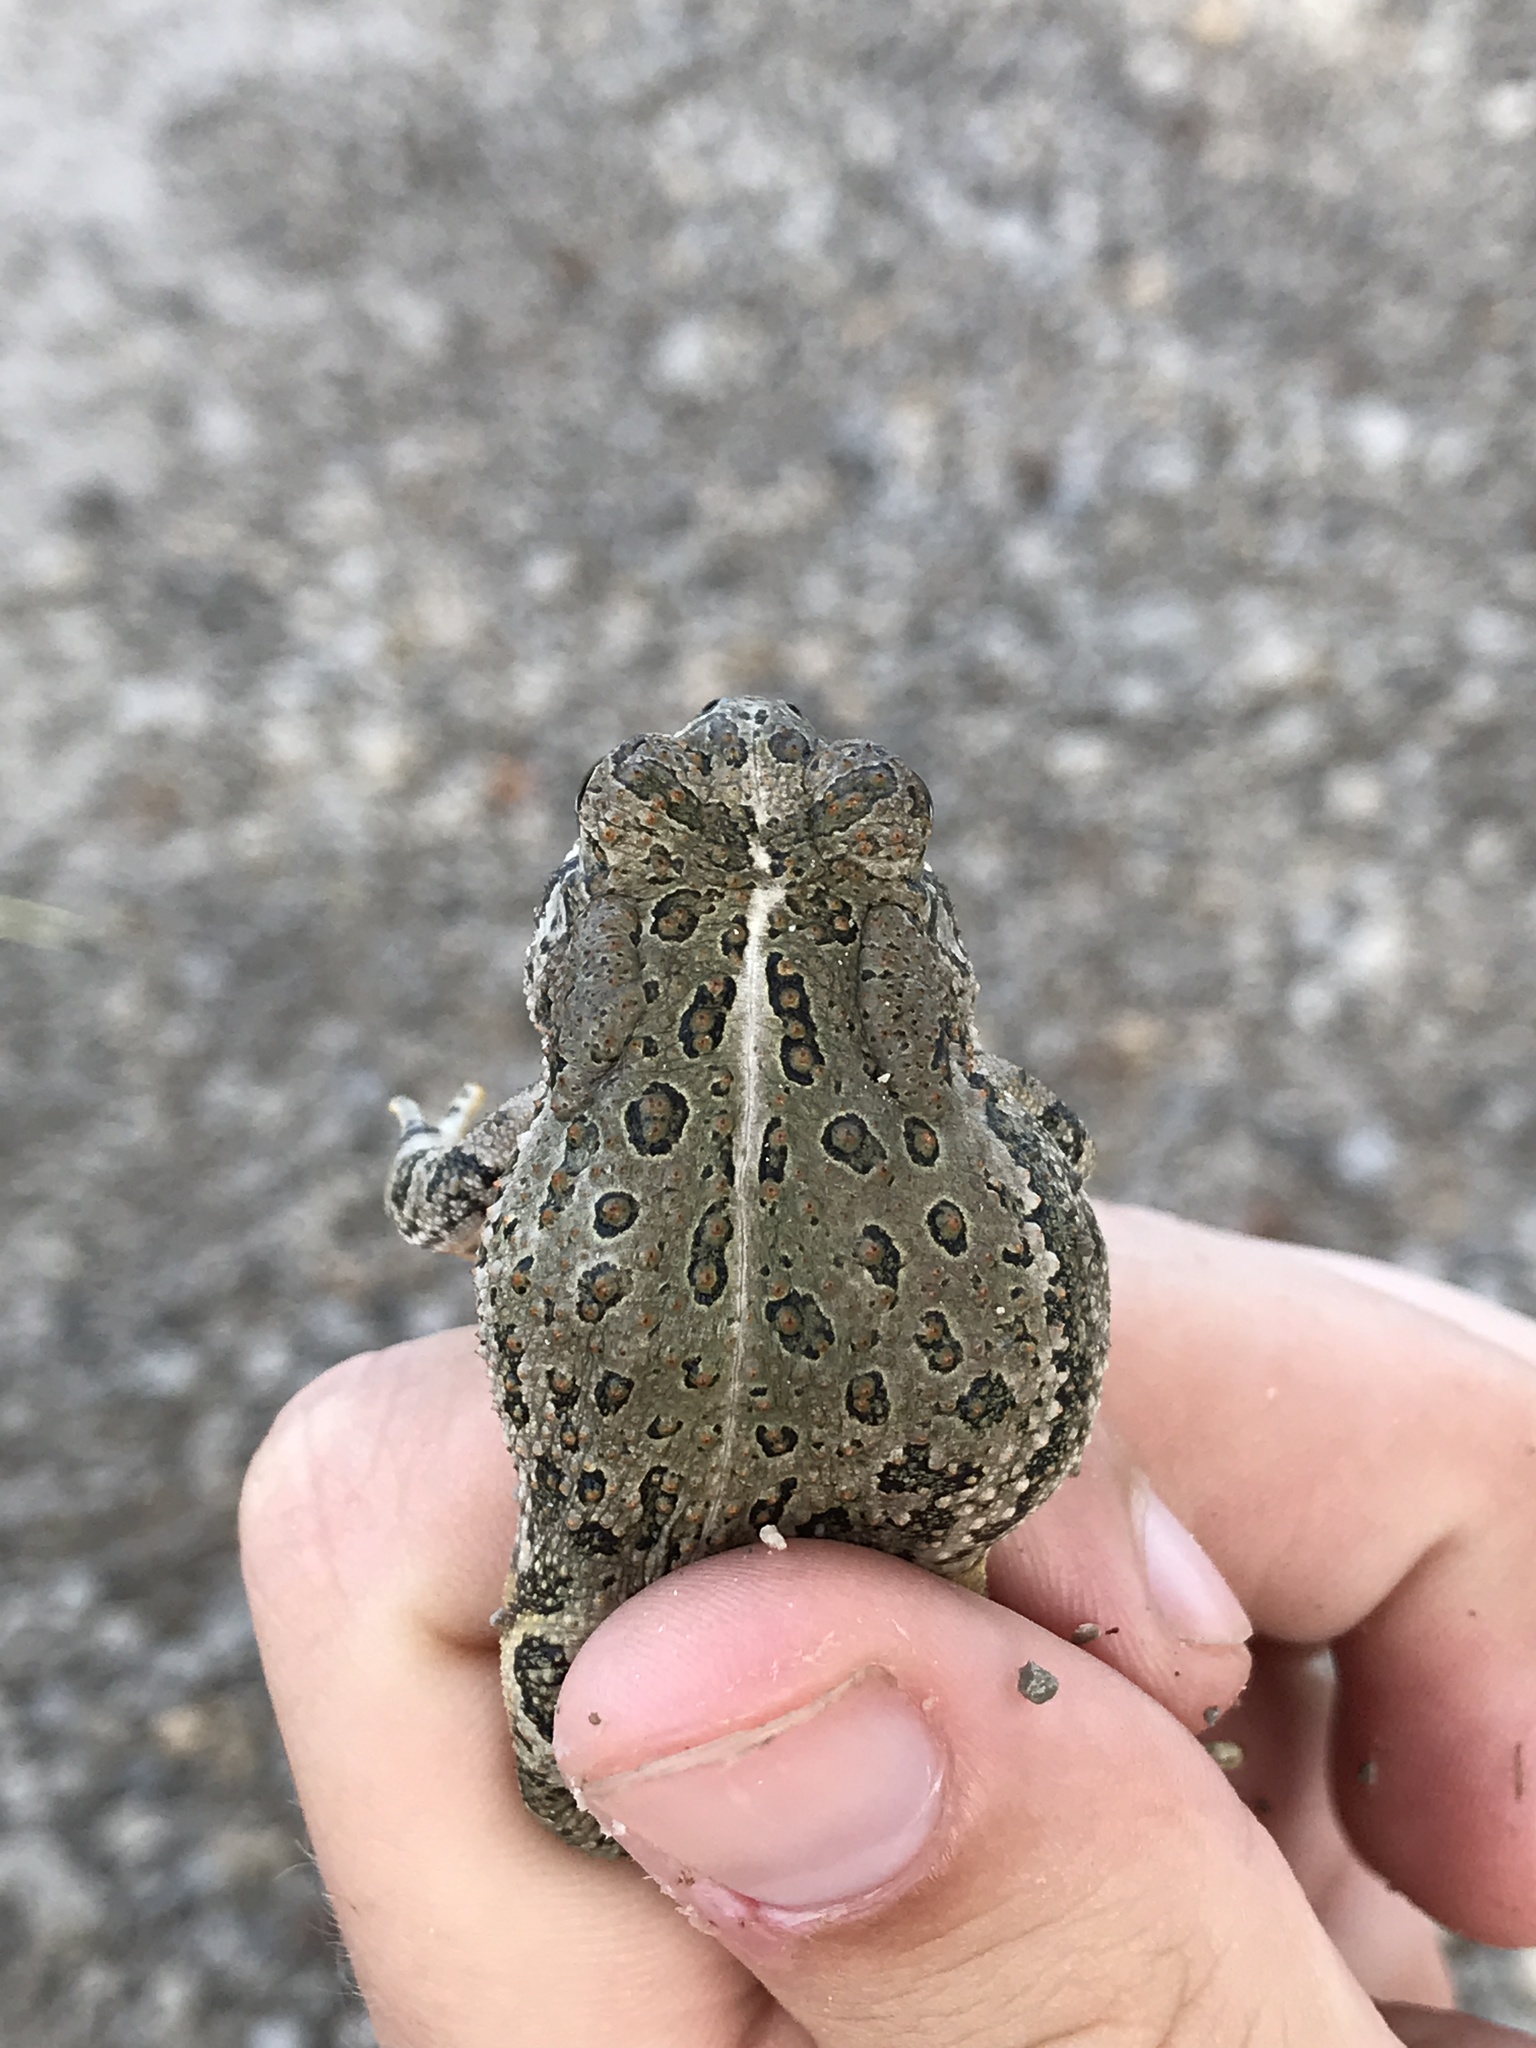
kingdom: Animalia
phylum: Chordata
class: Amphibia
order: Anura
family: Bufonidae
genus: Anaxyrus
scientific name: Anaxyrus woodhousii
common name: Woodhouse's toad
